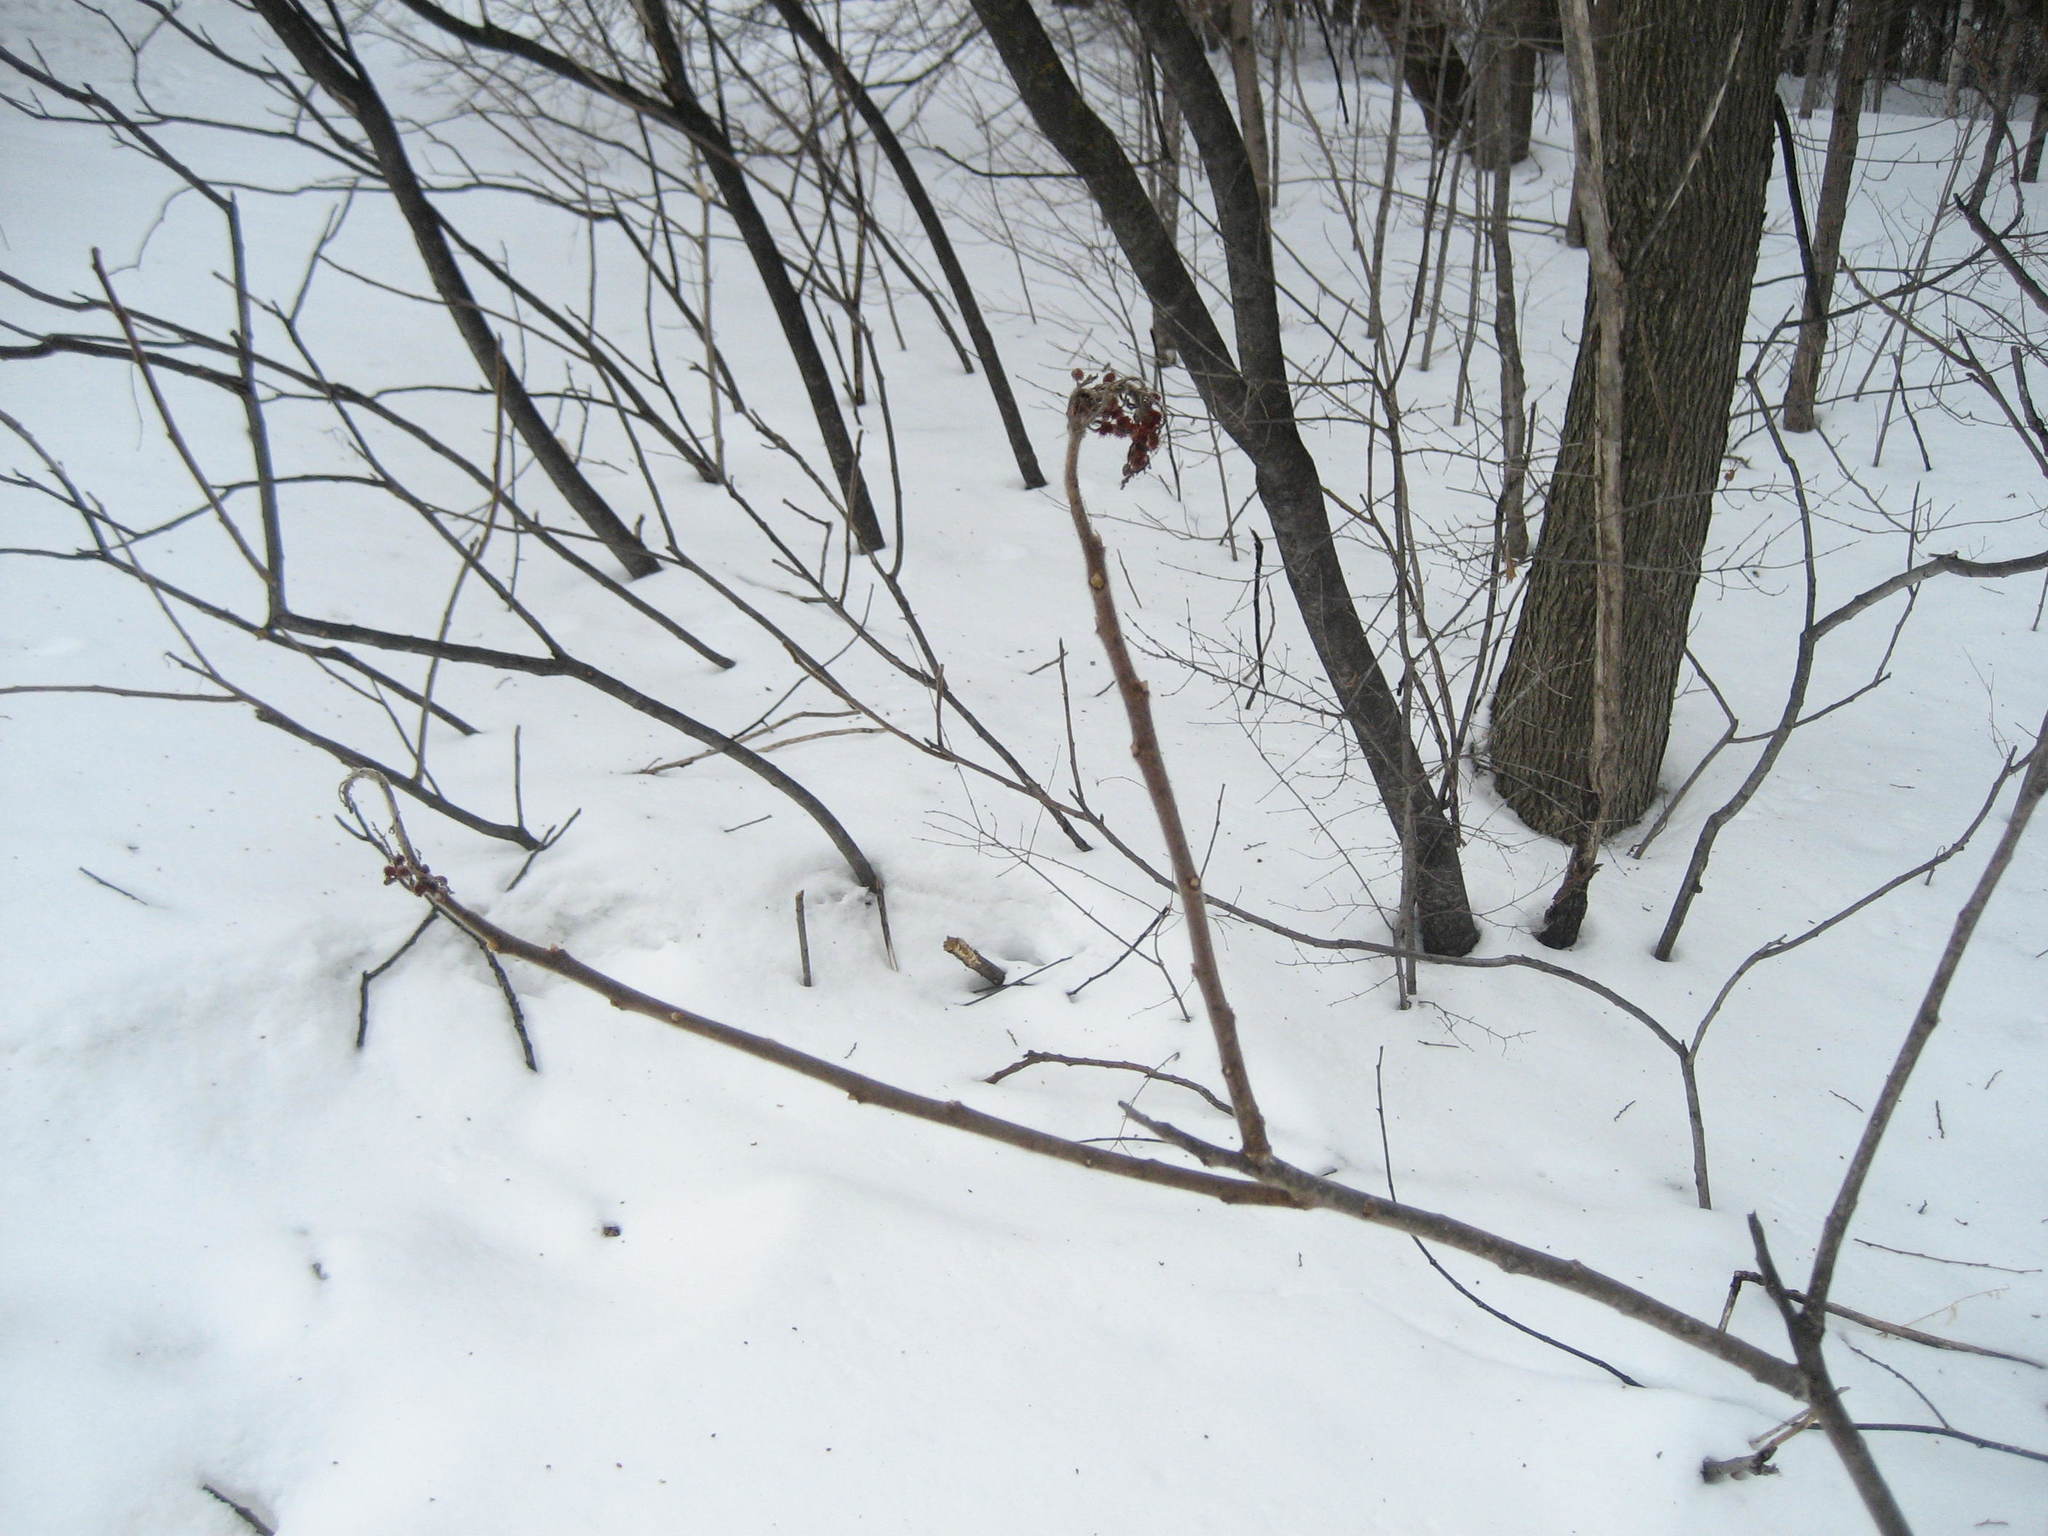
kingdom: Plantae
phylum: Tracheophyta
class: Magnoliopsida
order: Sapindales
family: Anacardiaceae
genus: Rhus
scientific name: Rhus typhina
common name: Staghorn sumac
